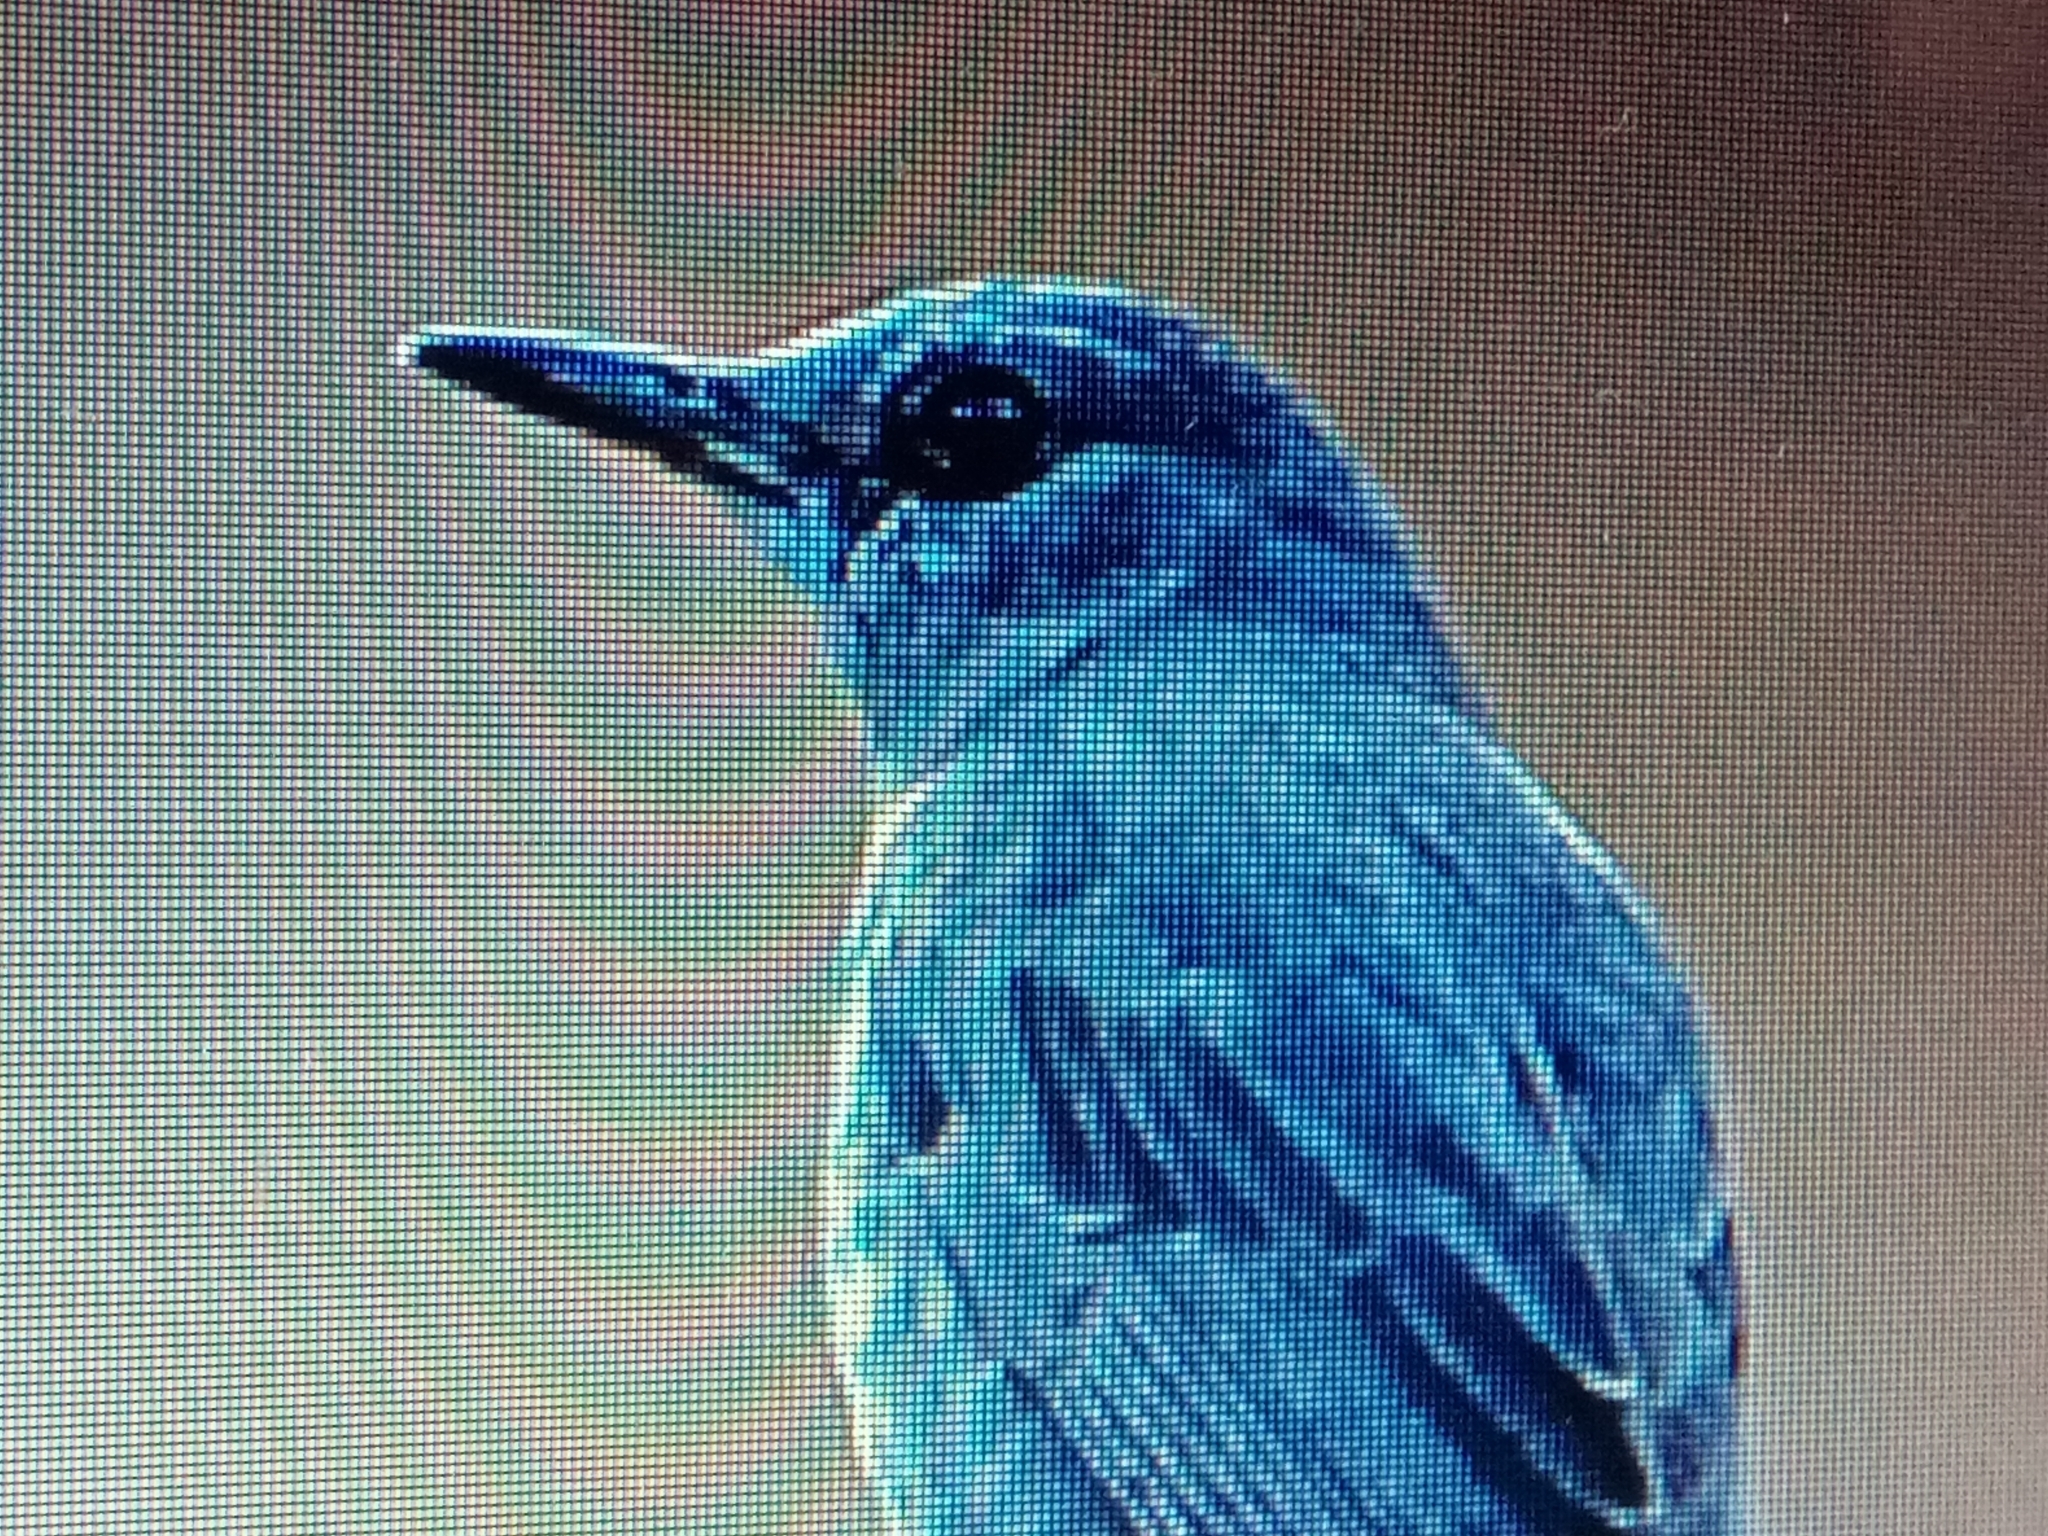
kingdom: Animalia
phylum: Chordata
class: Aves
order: Passeriformes
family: Muscicapidae
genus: Monticola
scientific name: Monticola solitarius
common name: Blue rock thrush
